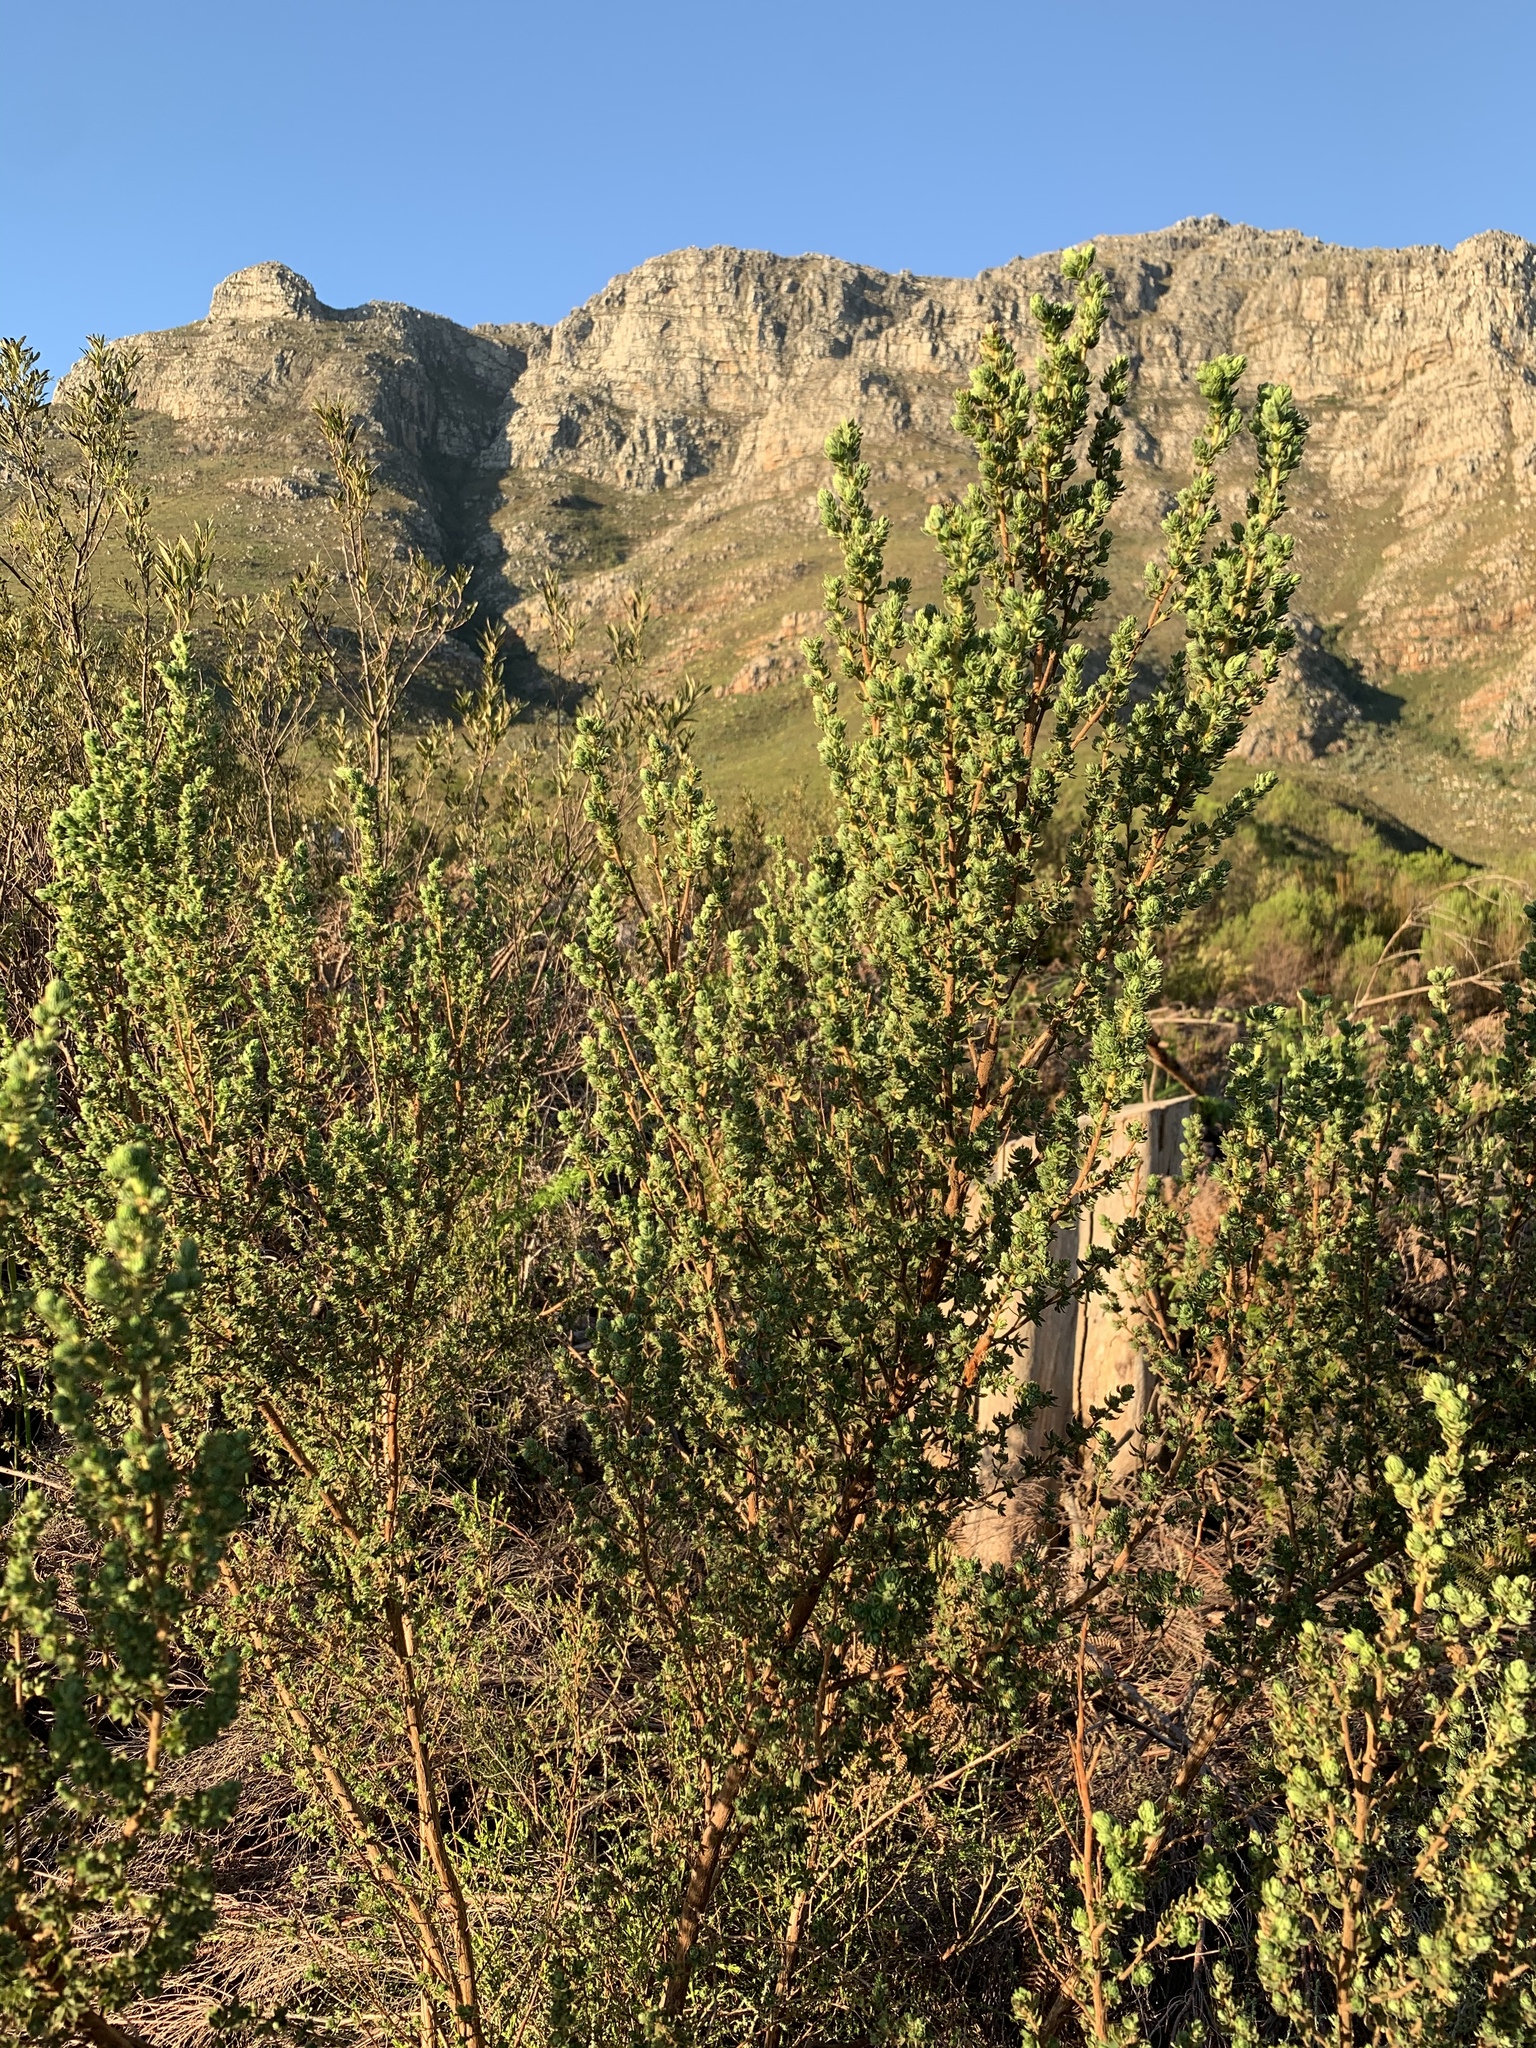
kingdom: Plantae
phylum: Tracheophyta
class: Magnoliopsida
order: Rosales
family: Rosaceae
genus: Cliffortia
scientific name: Cliffortia polygonifolia
